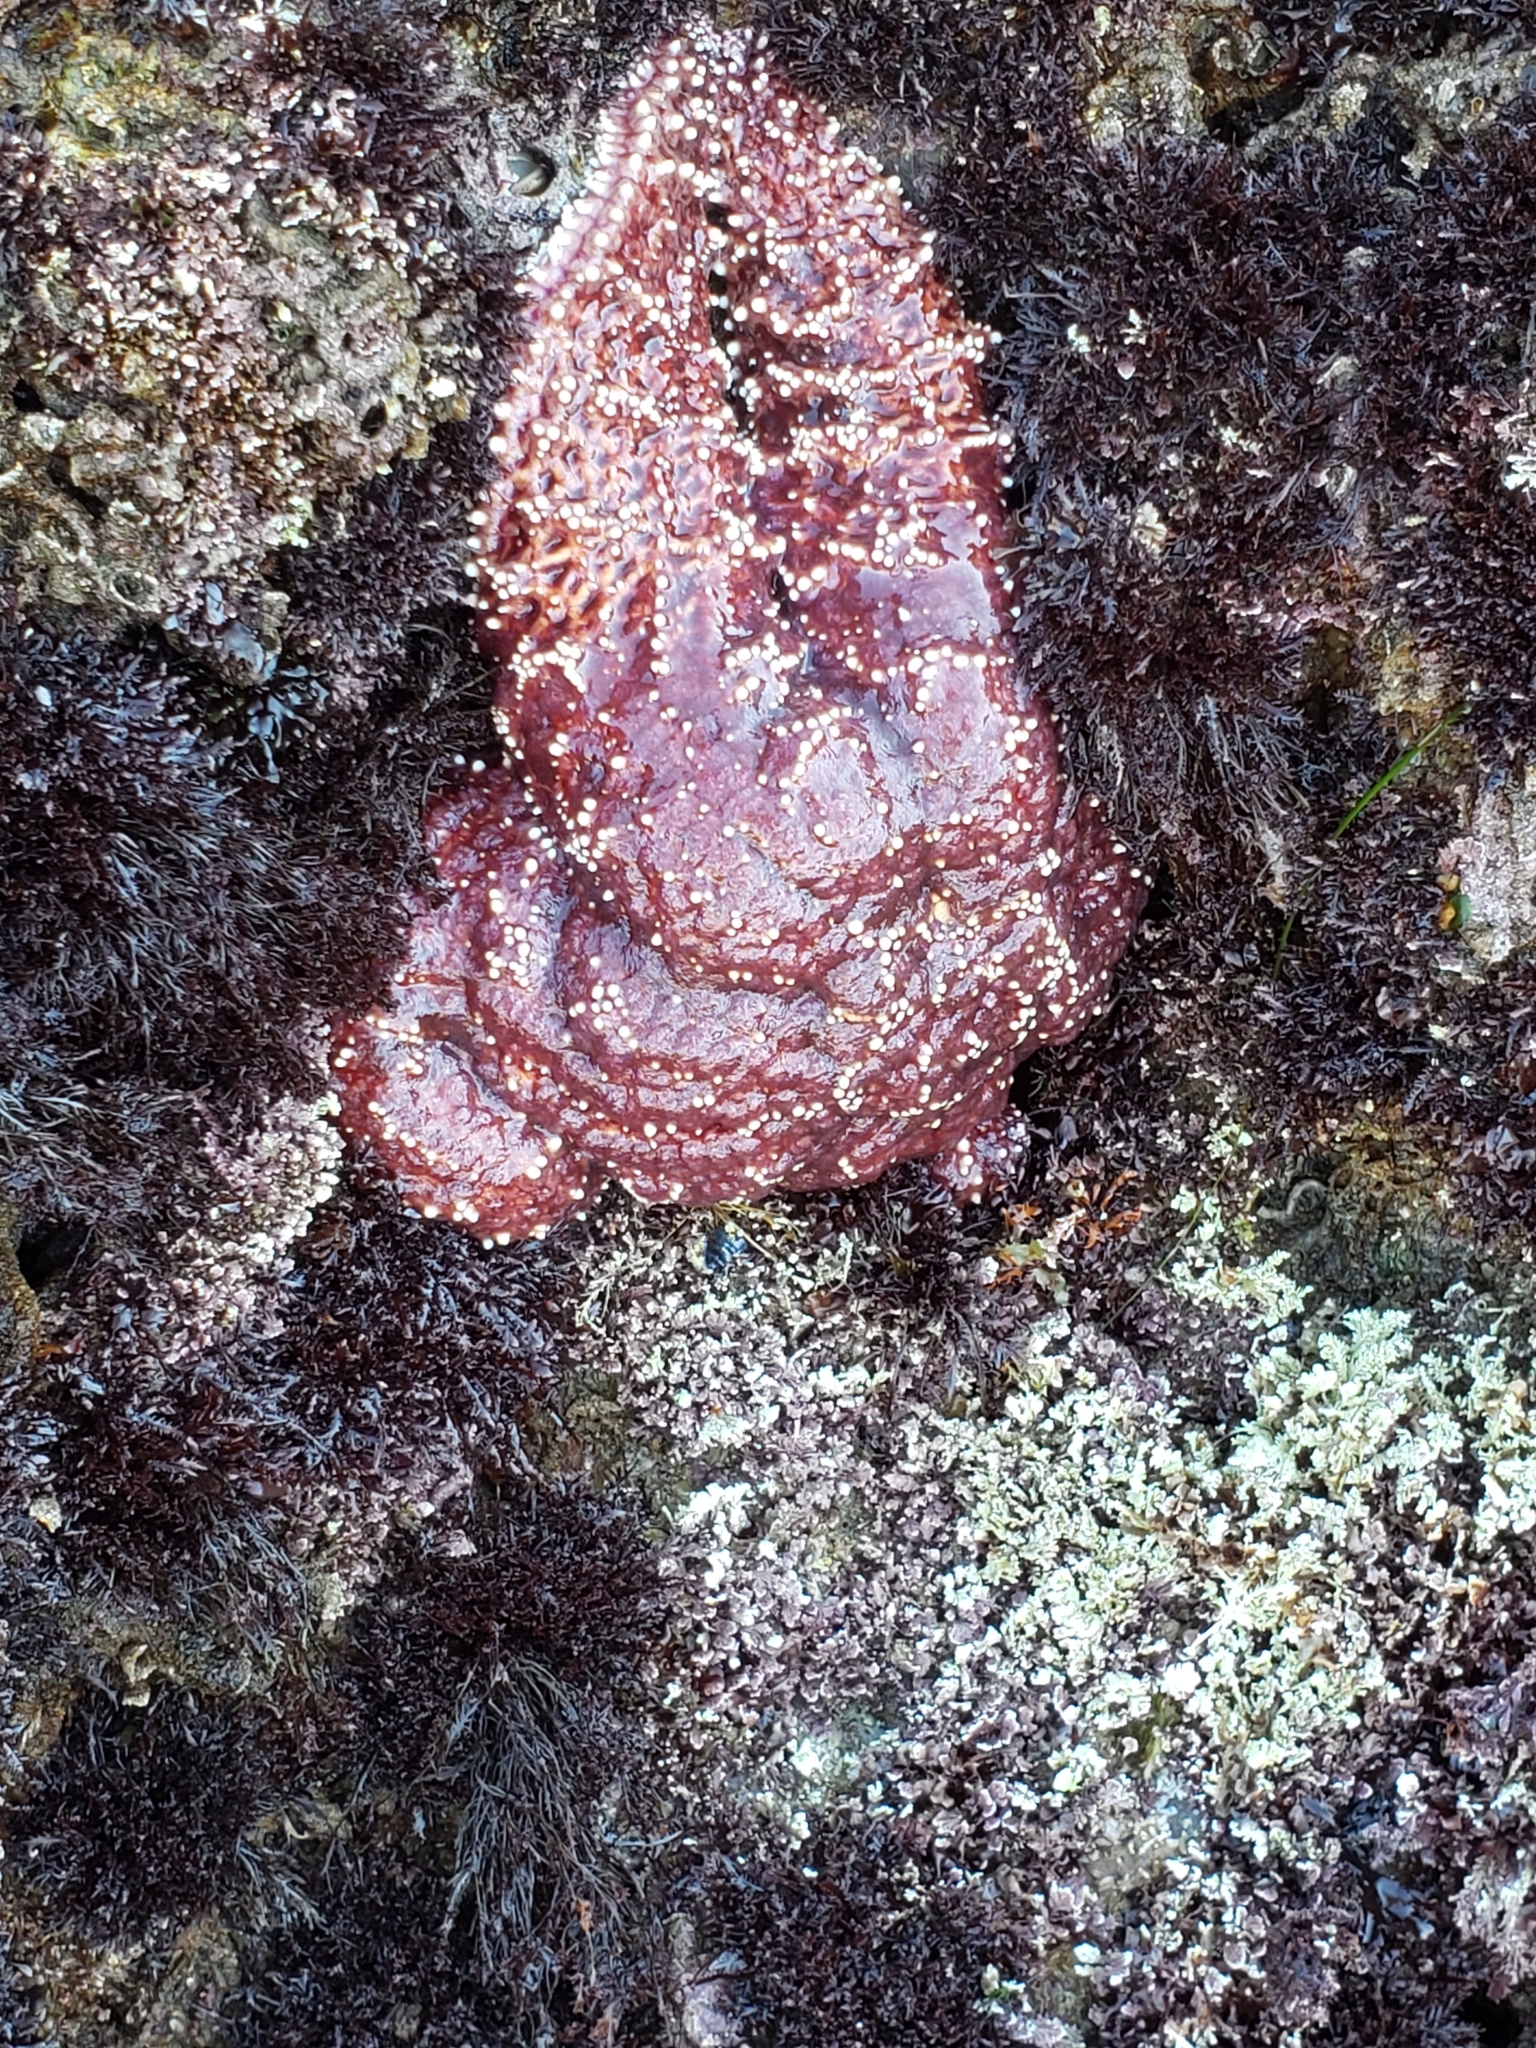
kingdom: Animalia
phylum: Echinodermata
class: Asteroidea
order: Forcipulatida
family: Asteriidae
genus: Pisaster
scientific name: Pisaster ochraceus
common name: Ochre stars
